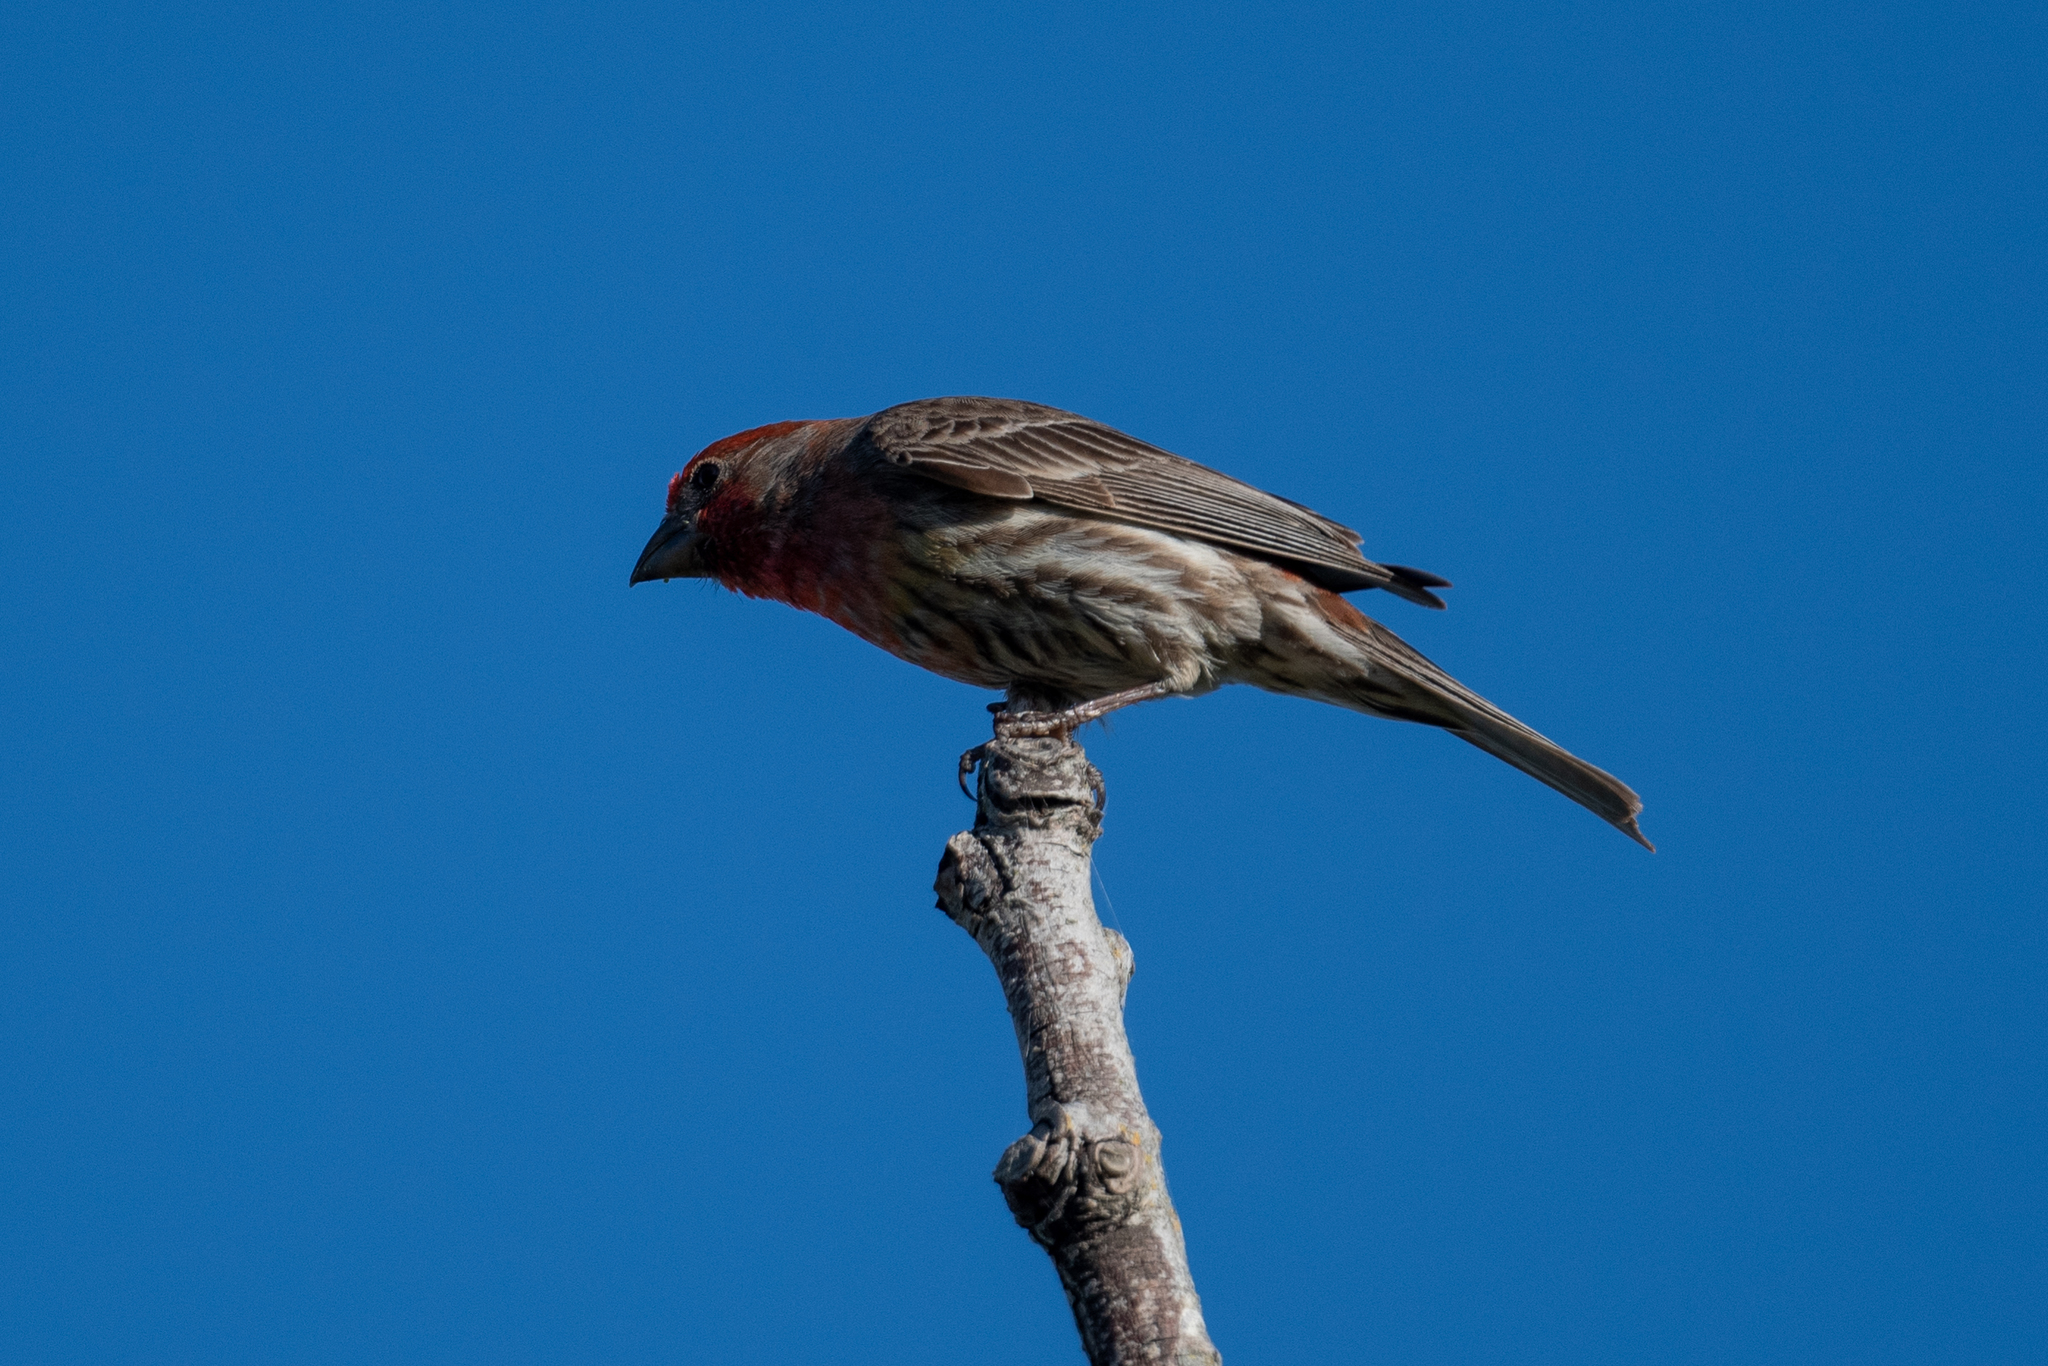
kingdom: Animalia
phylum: Chordata
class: Aves
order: Passeriformes
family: Fringillidae
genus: Haemorhous
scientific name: Haemorhous mexicanus
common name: House finch
